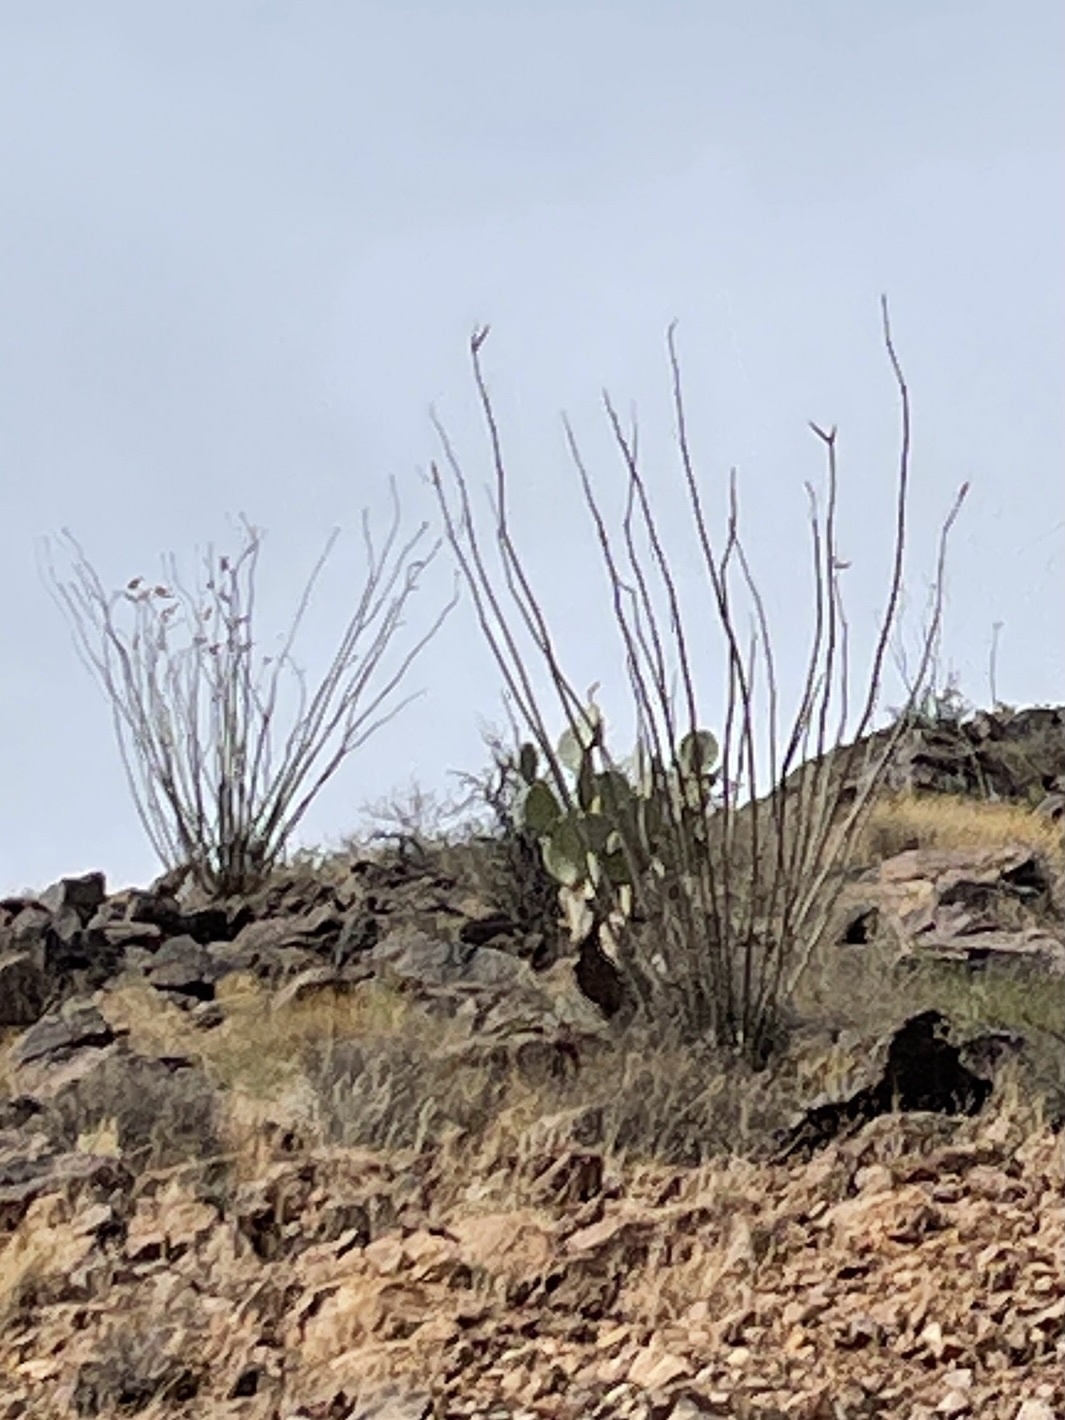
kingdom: Plantae
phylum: Tracheophyta
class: Magnoliopsida
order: Ericales
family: Fouquieriaceae
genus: Fouquieria
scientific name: Fouquieria splendens
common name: Vine-cactus
